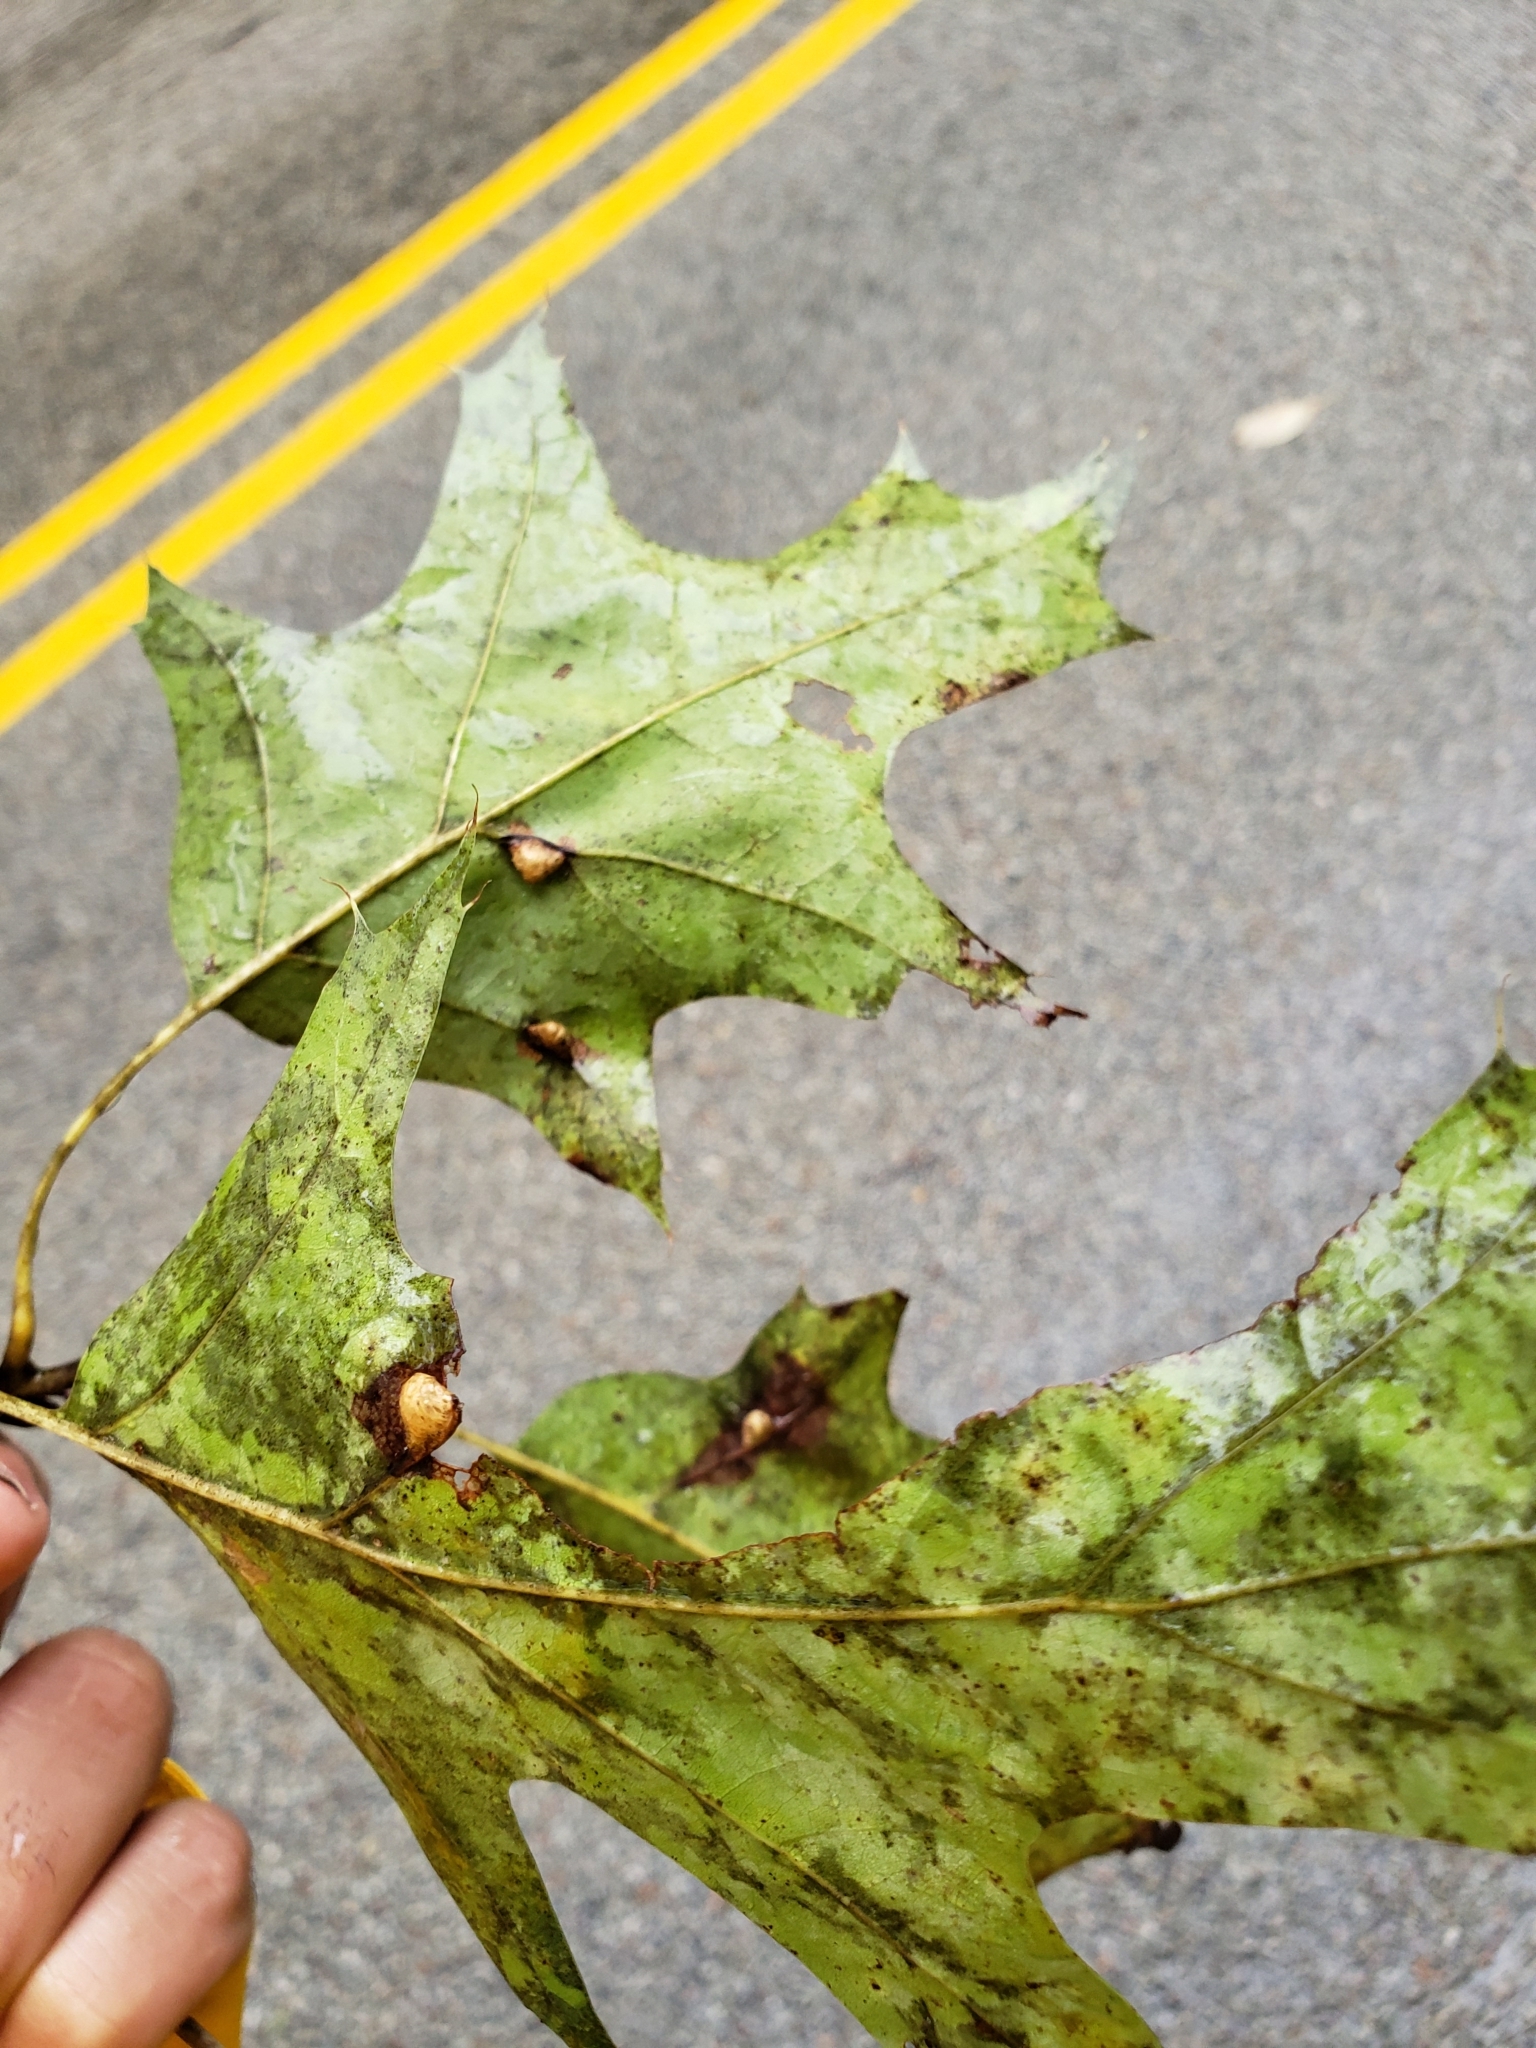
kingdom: Animalia
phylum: Arthropoda
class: Insecta
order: Diptera
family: Cecidomyiidae
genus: Macrodiplosis
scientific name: Macrodiplosis majalis
